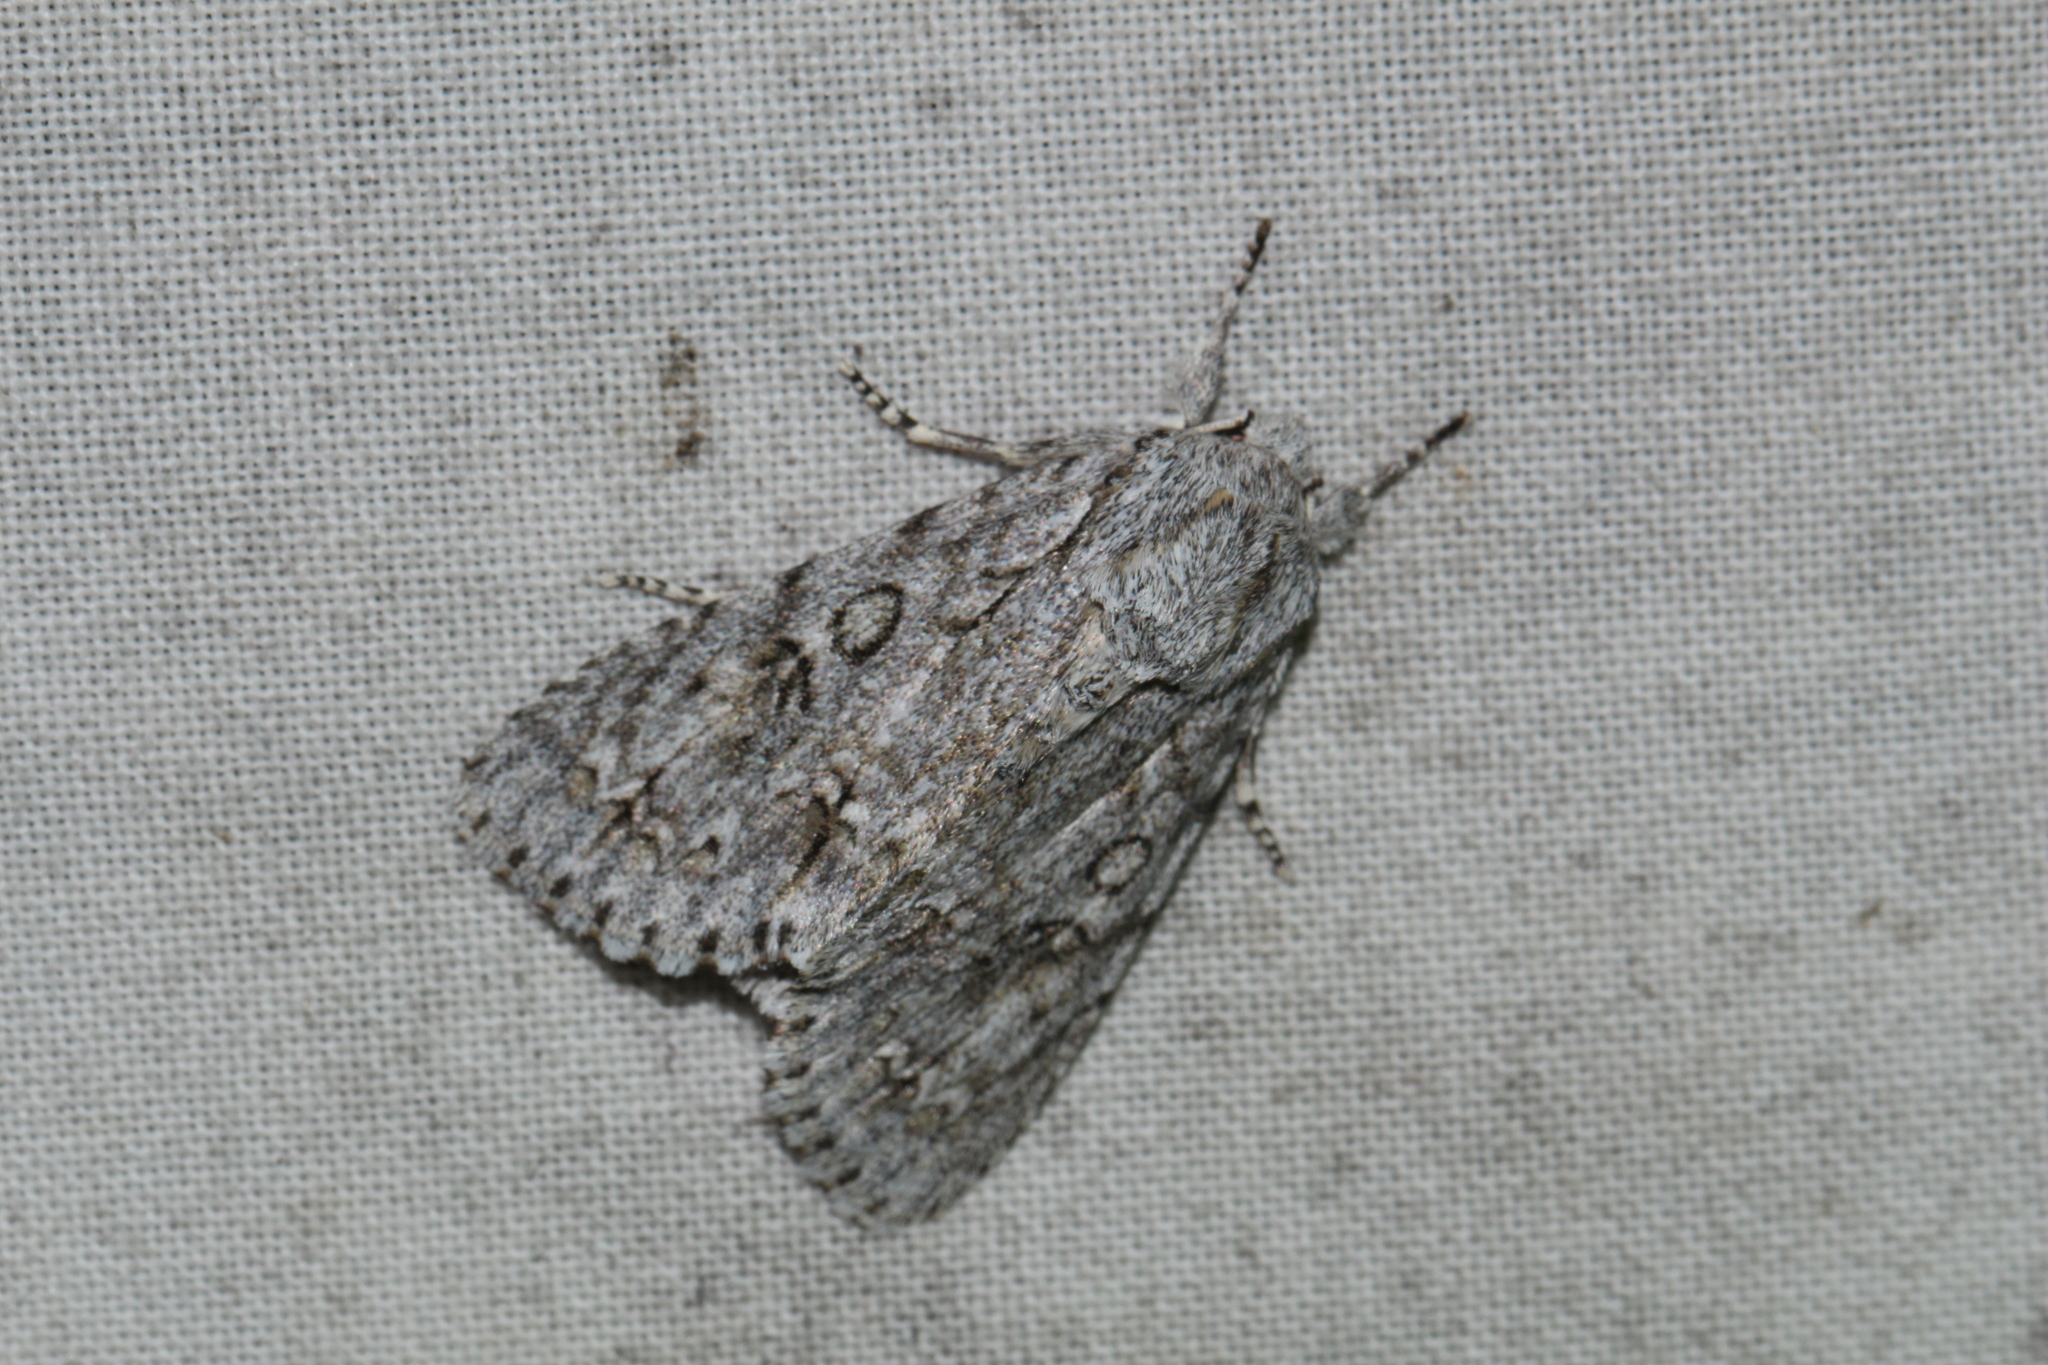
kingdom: Animalia
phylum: Arthropoda
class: Insecta
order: Lepidoptera
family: Noctuidae
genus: Acronicta
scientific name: Acronicta aceris
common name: Sycamore
